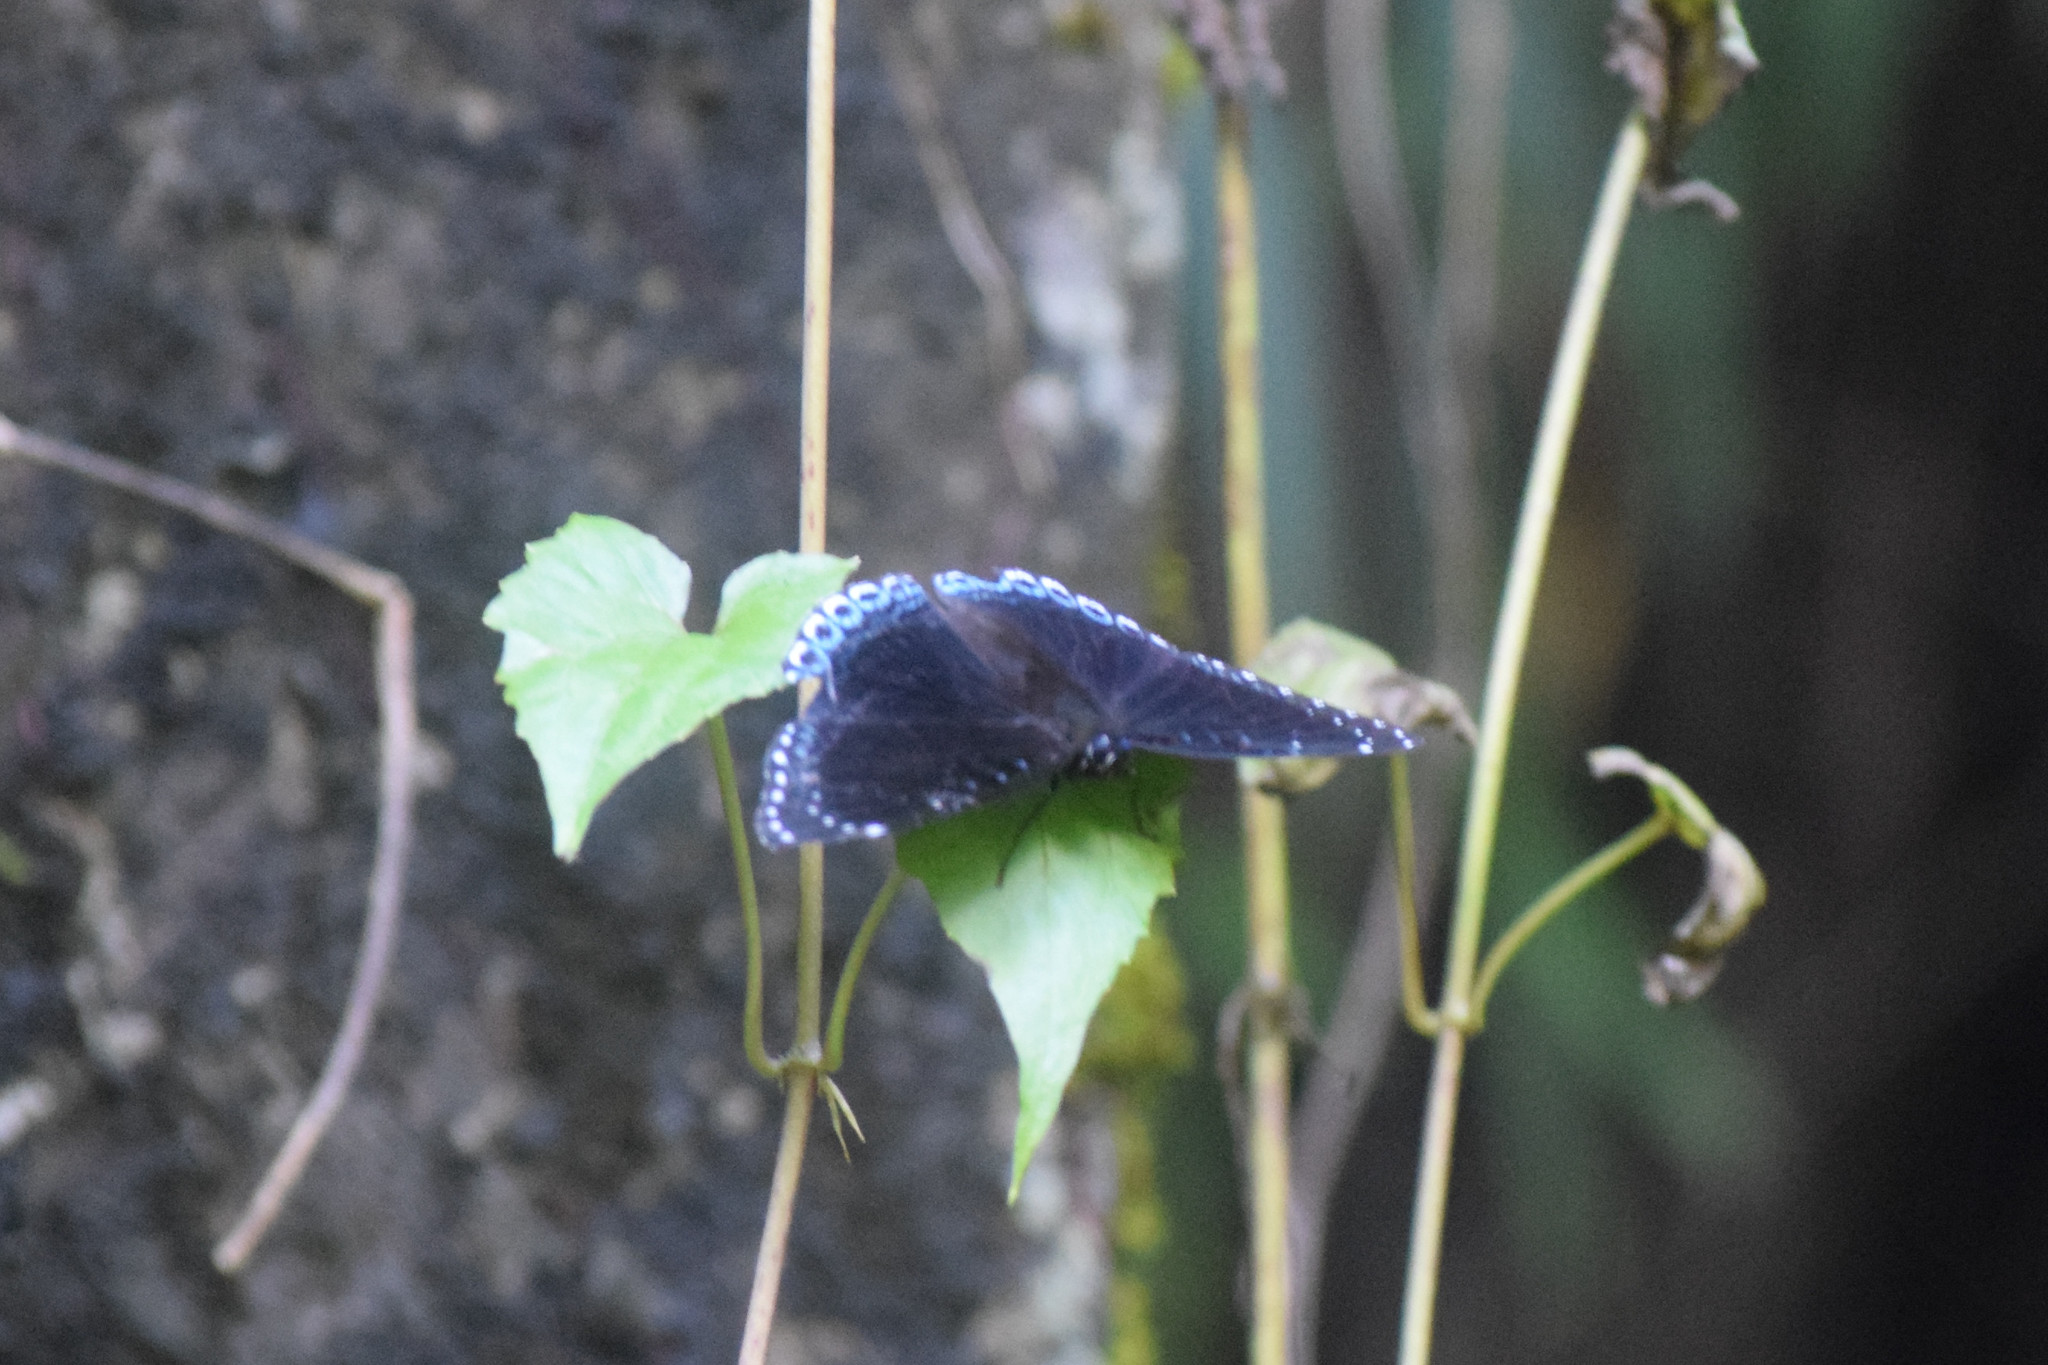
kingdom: Animalia
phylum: Arthropoda
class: Insecta
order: Lepidoptera
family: Nymphalidae
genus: Stibochiona
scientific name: Stibochiona nicea
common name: Popinjay
